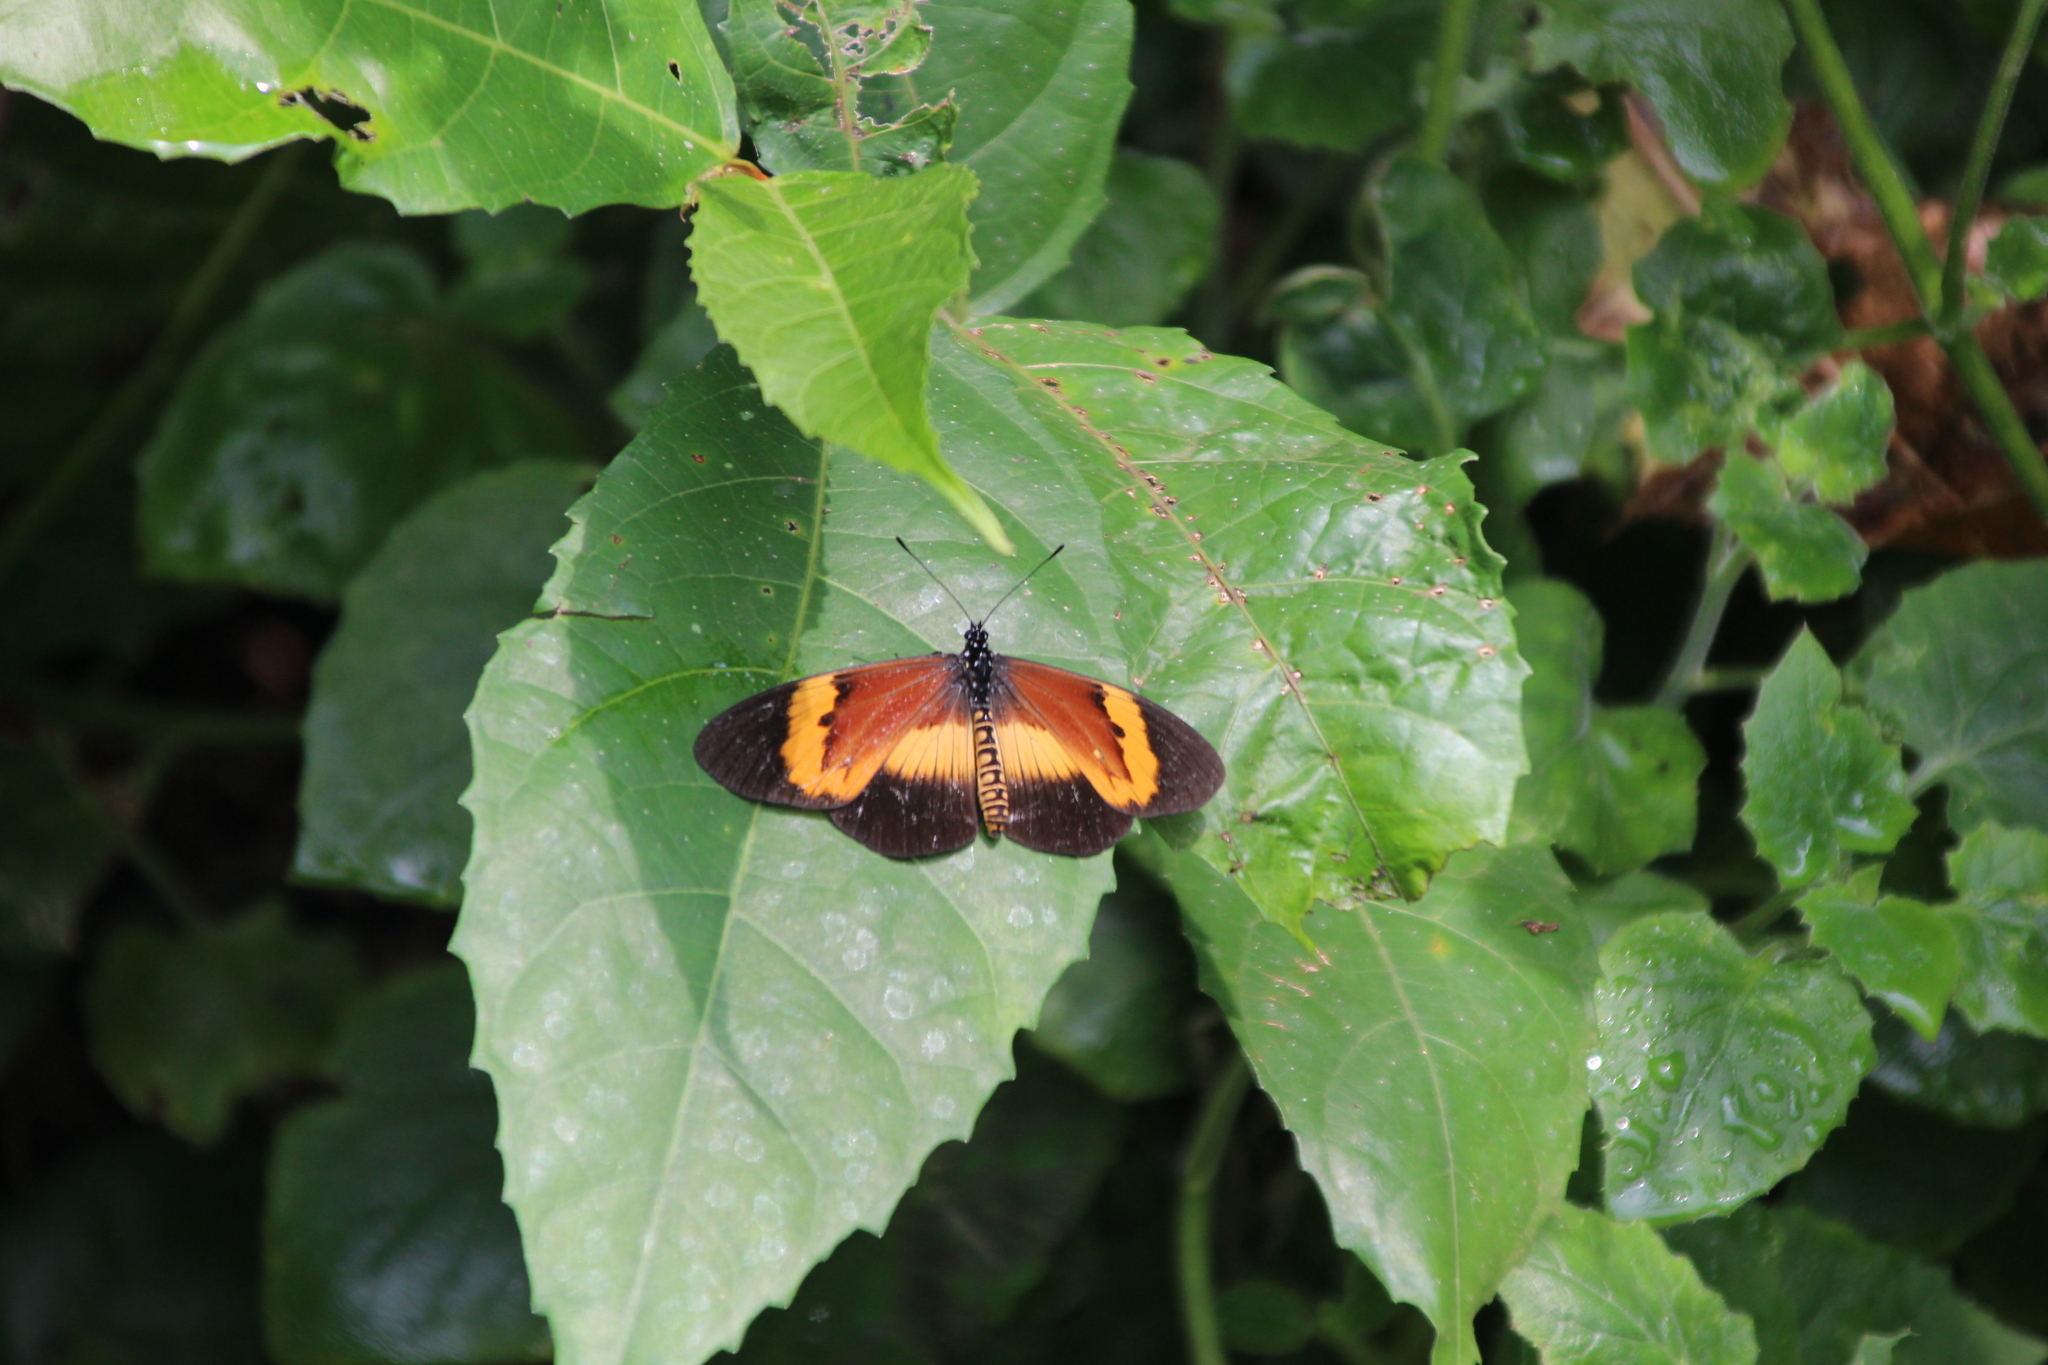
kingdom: Animalia
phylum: Arthropoda
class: Insecta
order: Lepidoptera
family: Nymphalidae
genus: Acraea
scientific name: Acraea
